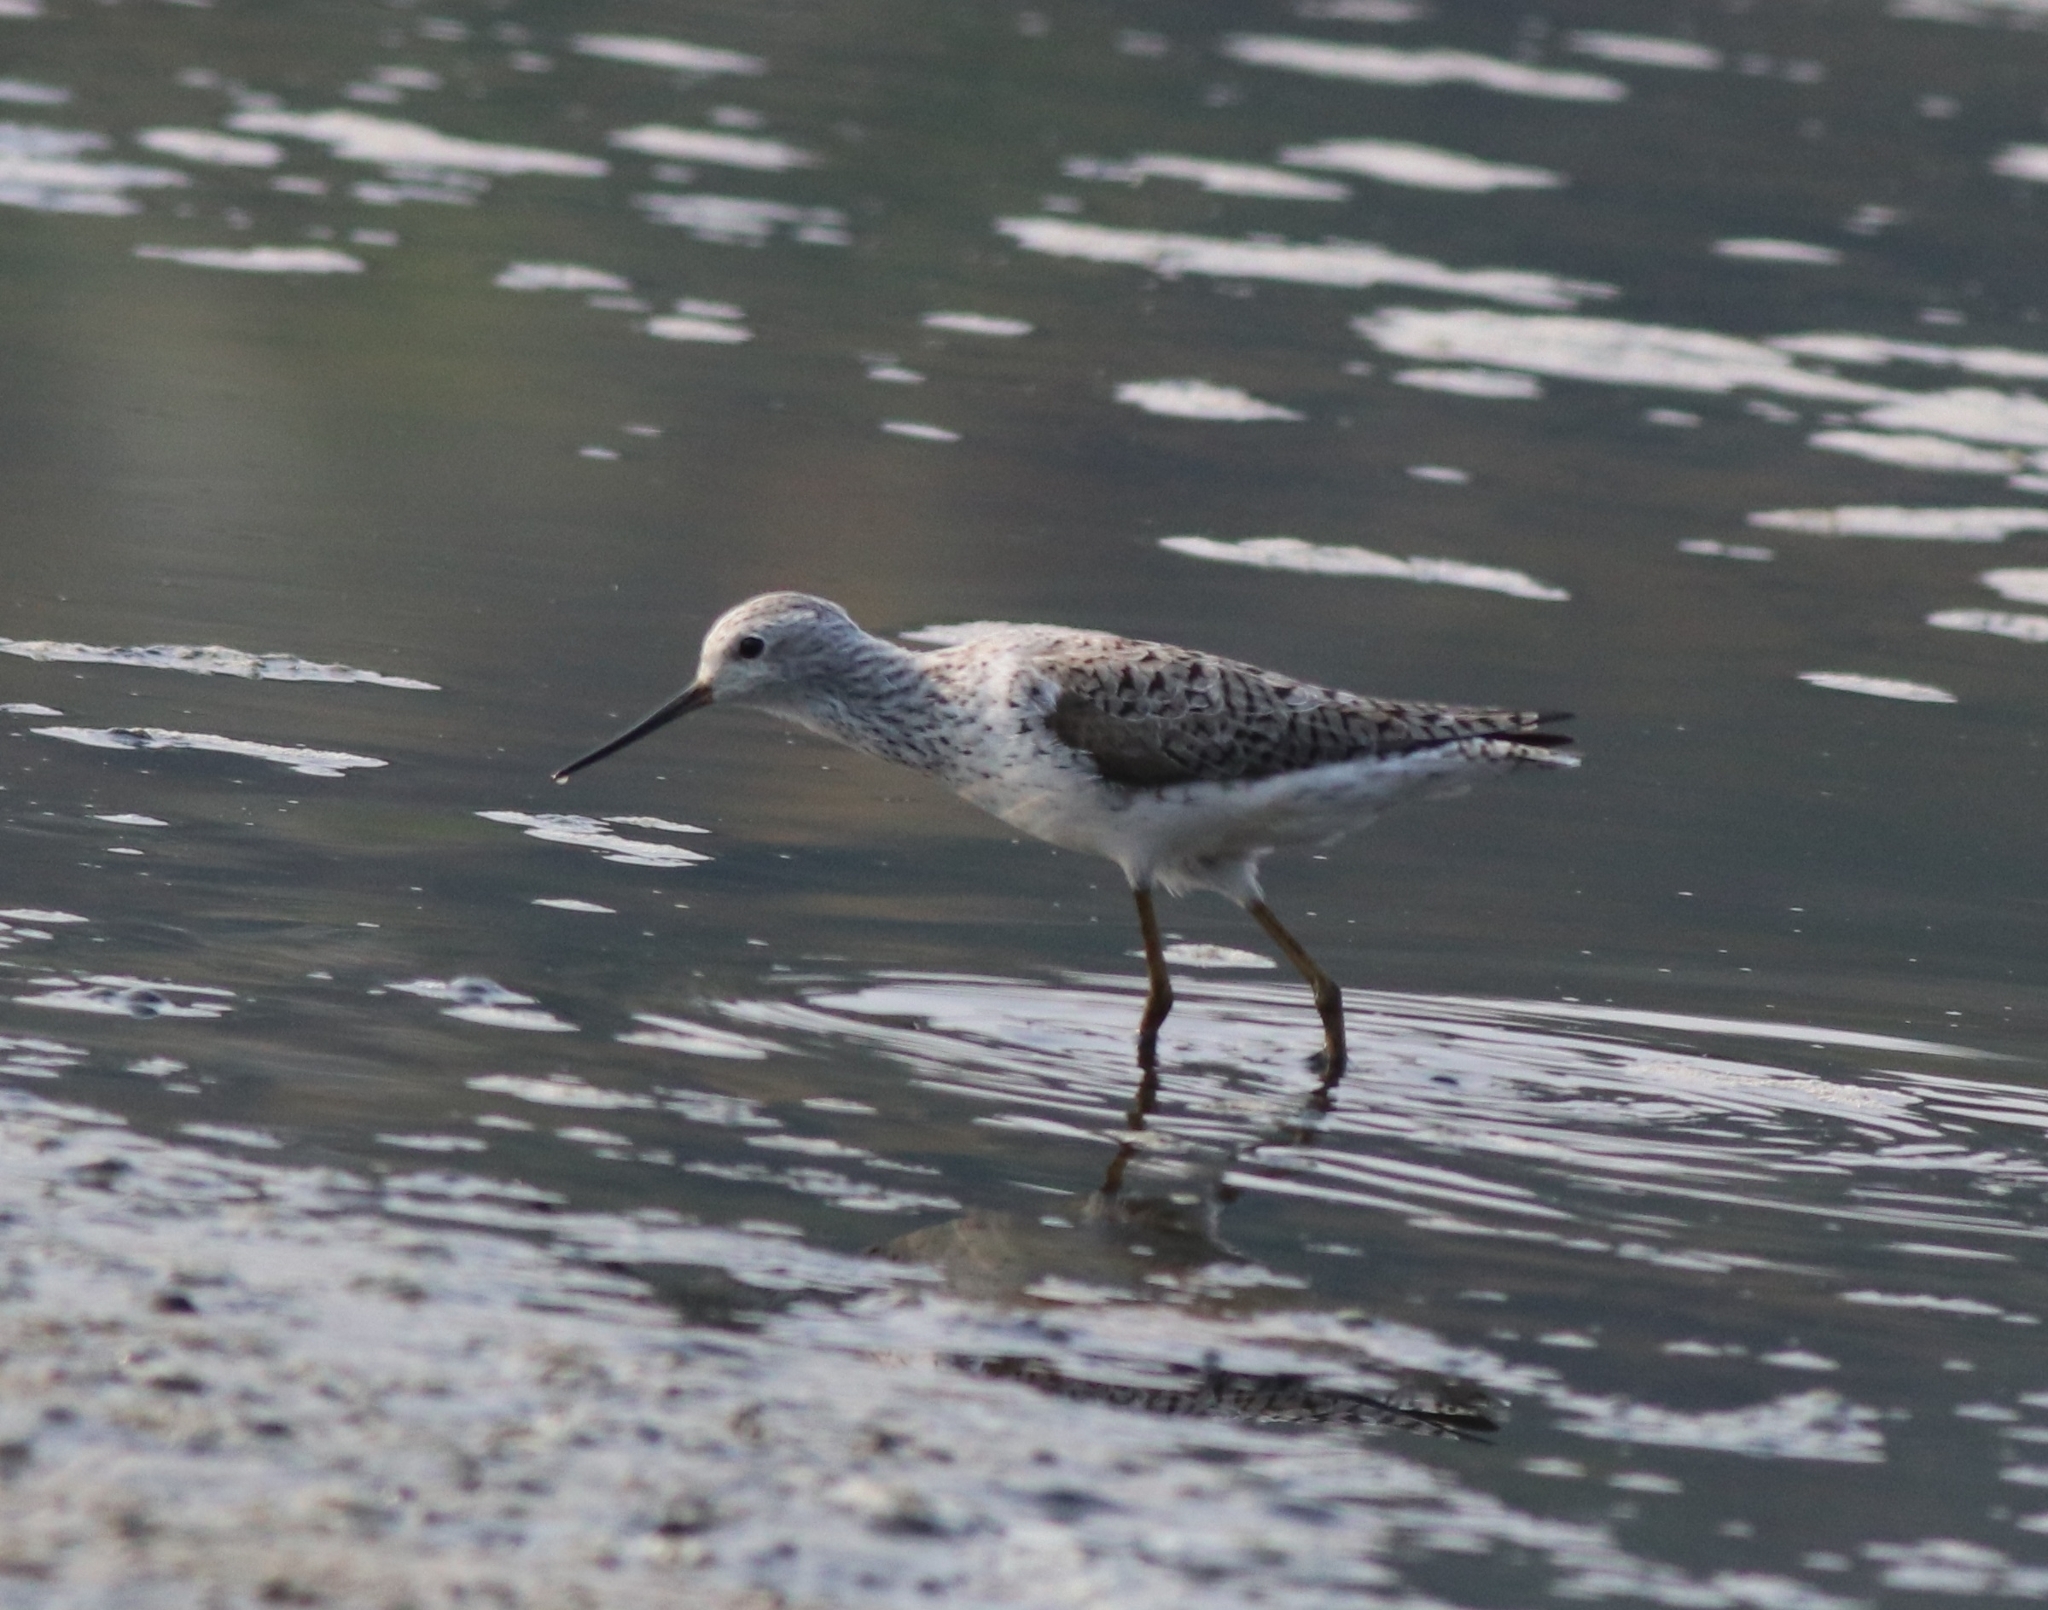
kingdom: Animalia
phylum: Chordata
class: Aves
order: Charadriiformes
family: Scolopacidae
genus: Tringa
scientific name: Tringa stagnatilis
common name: Marsh sandpiper
